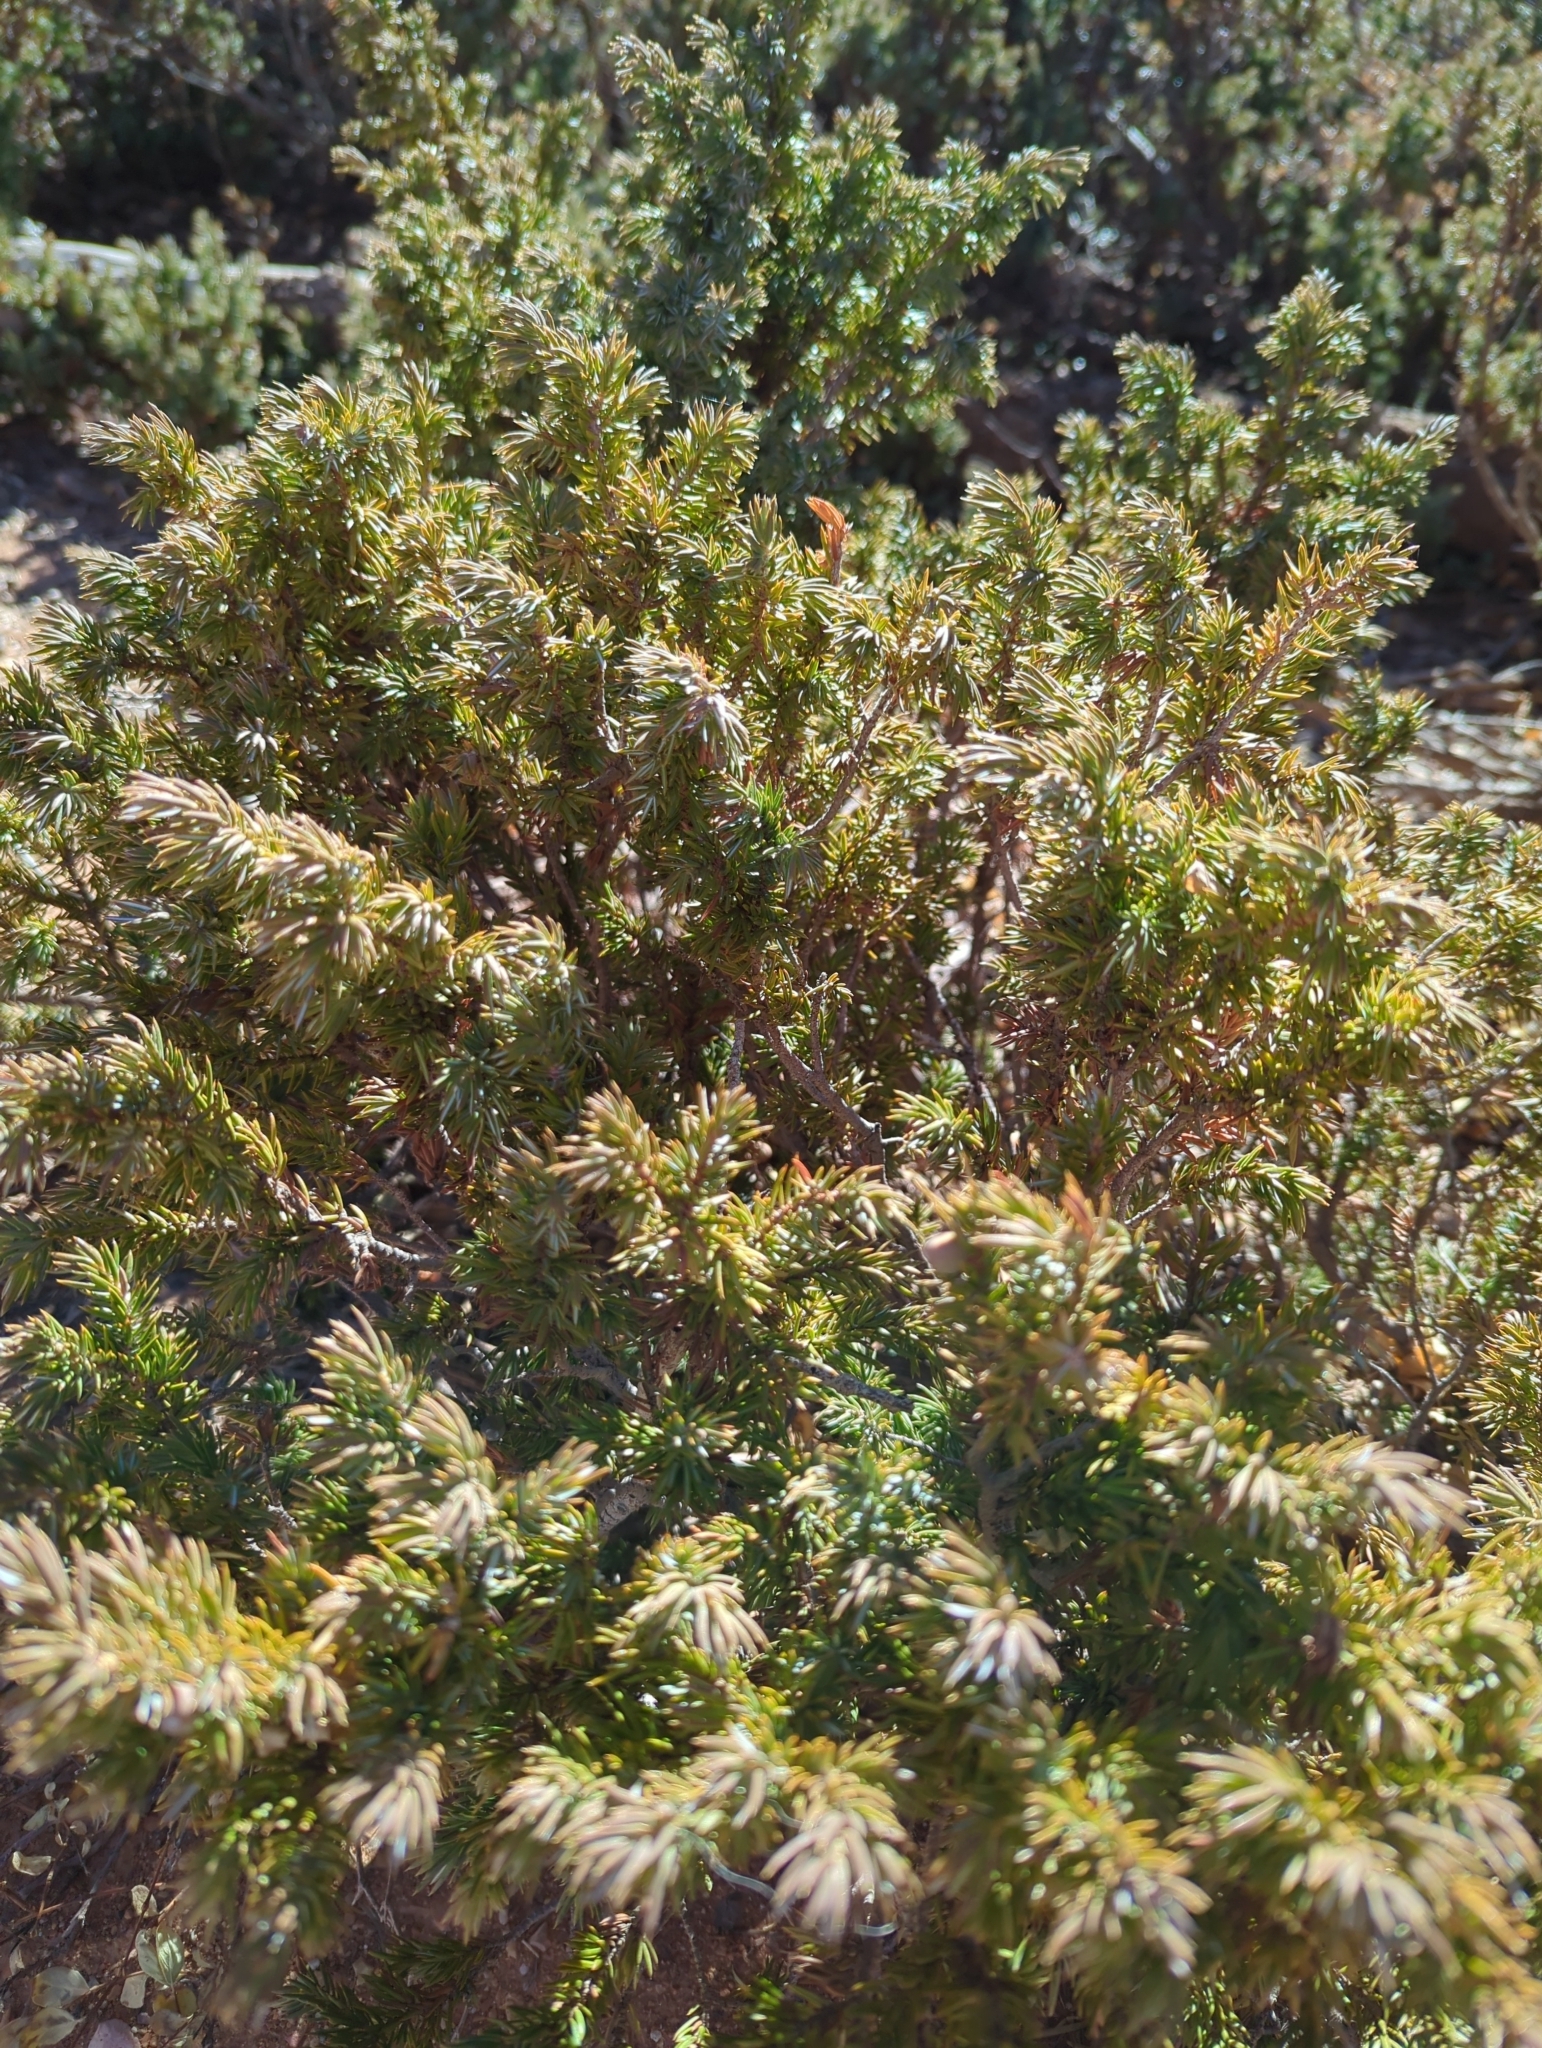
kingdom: Plantae
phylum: Tracheophyta
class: Pinopsida
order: Pinales
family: Cupressaceae
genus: Juniperus
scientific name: Juniperus communis
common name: Common juniper
